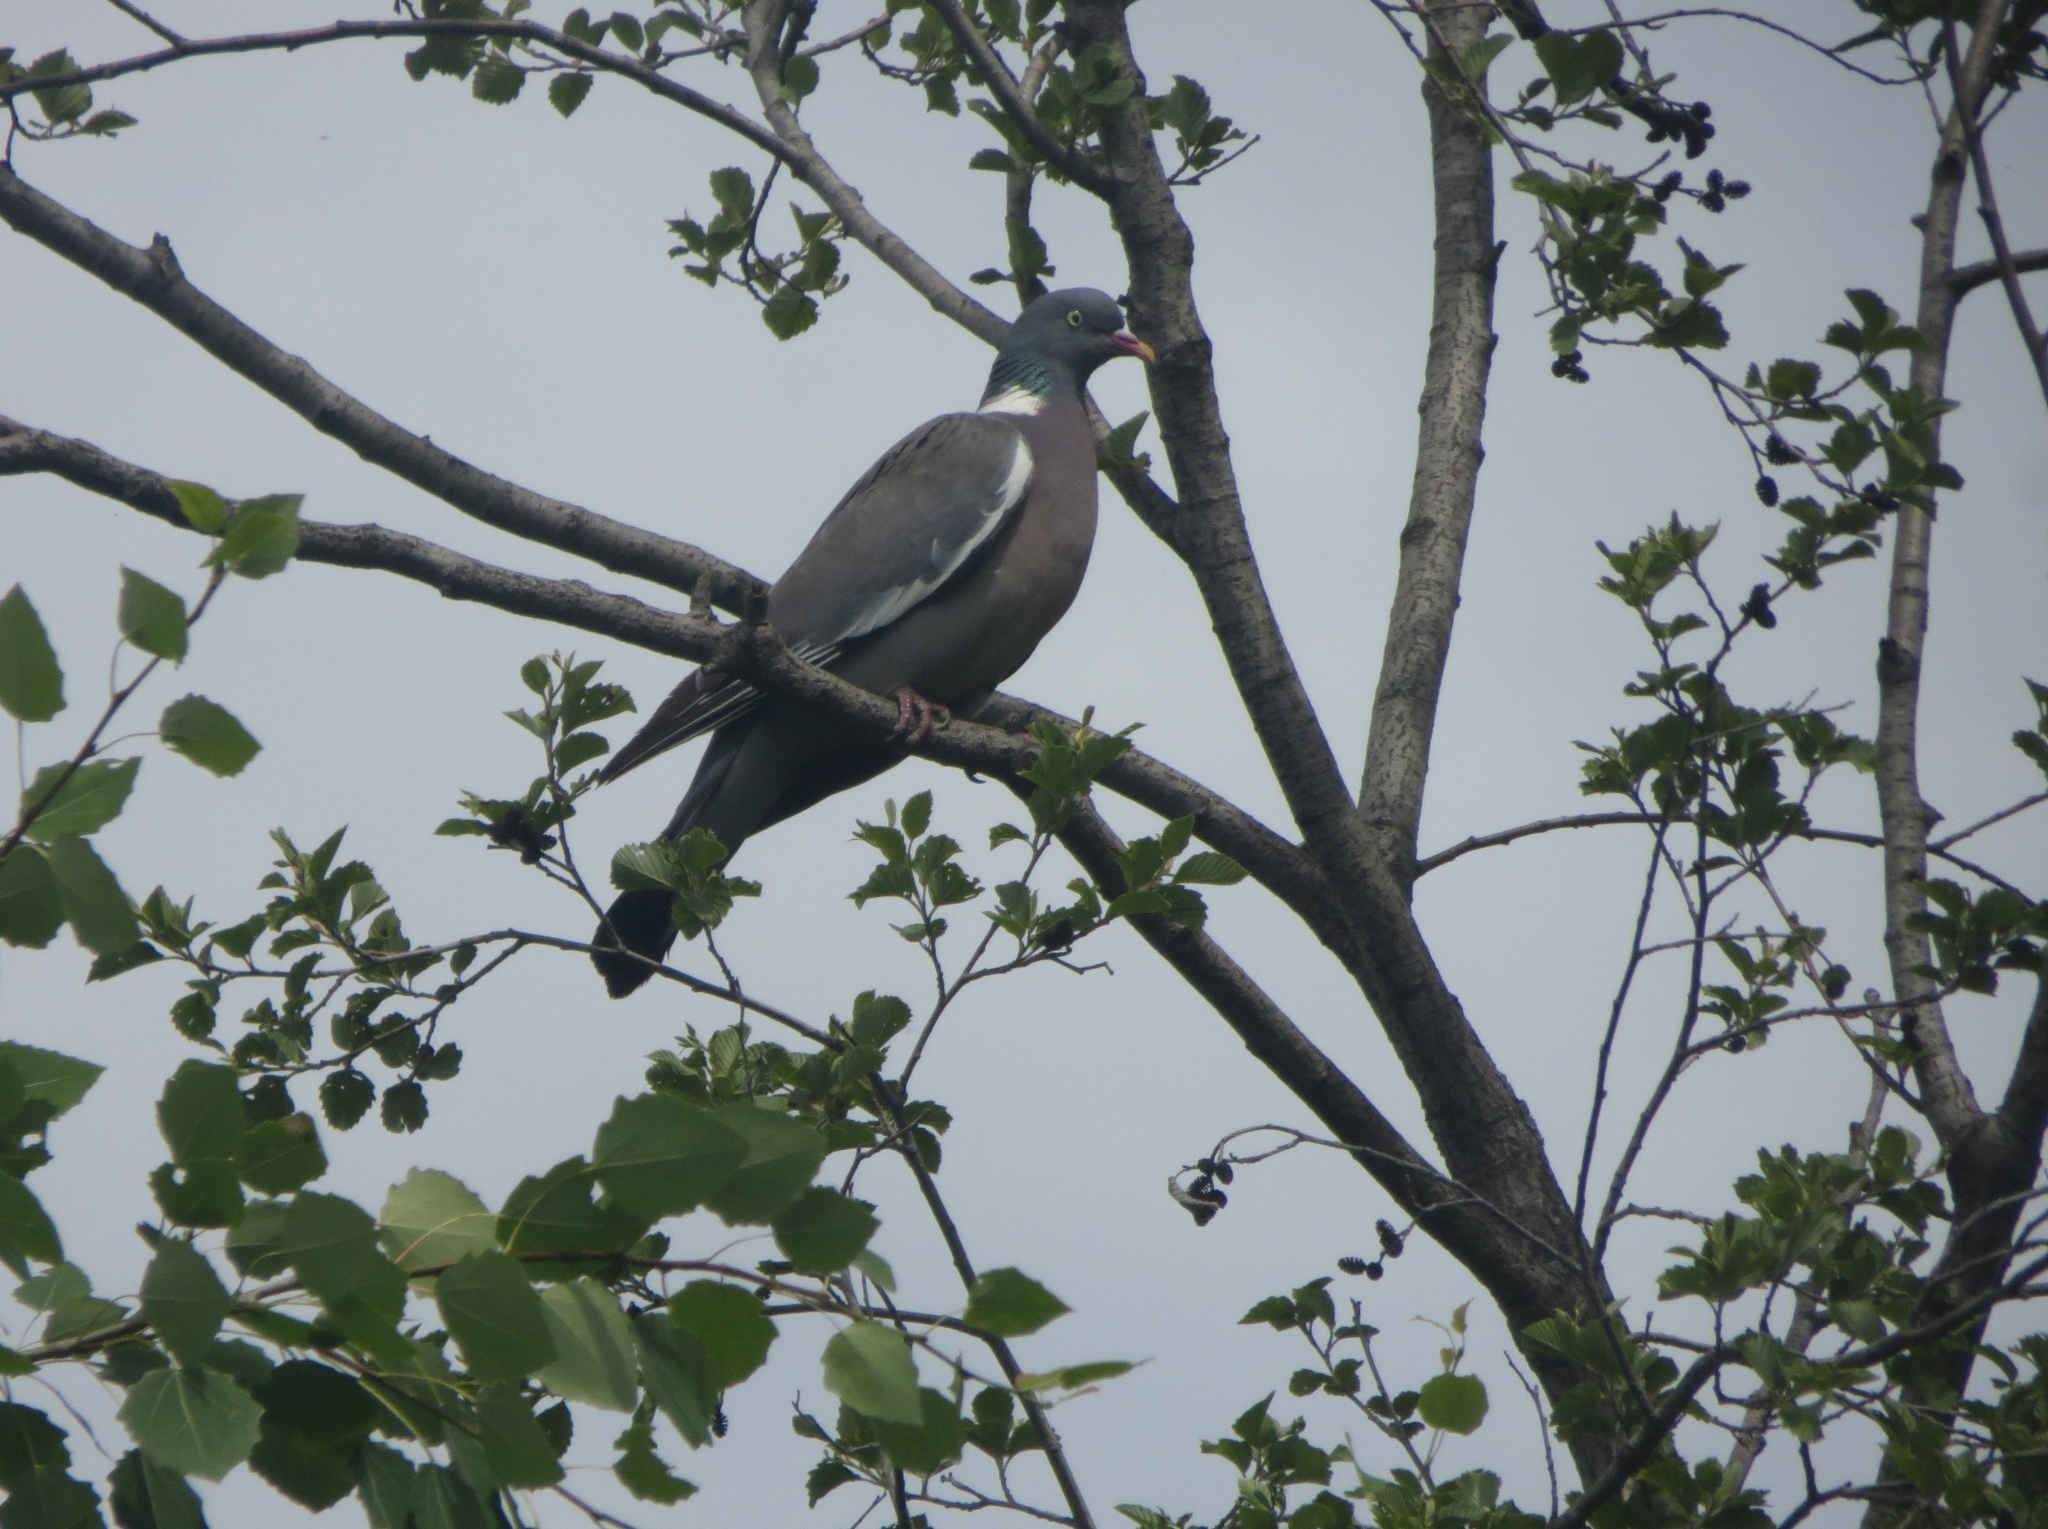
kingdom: Animalia
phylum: Chordata
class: Aves
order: Columbiformes
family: Columbidae
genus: Columba
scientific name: Columba palumbus
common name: Common wood pigeon
